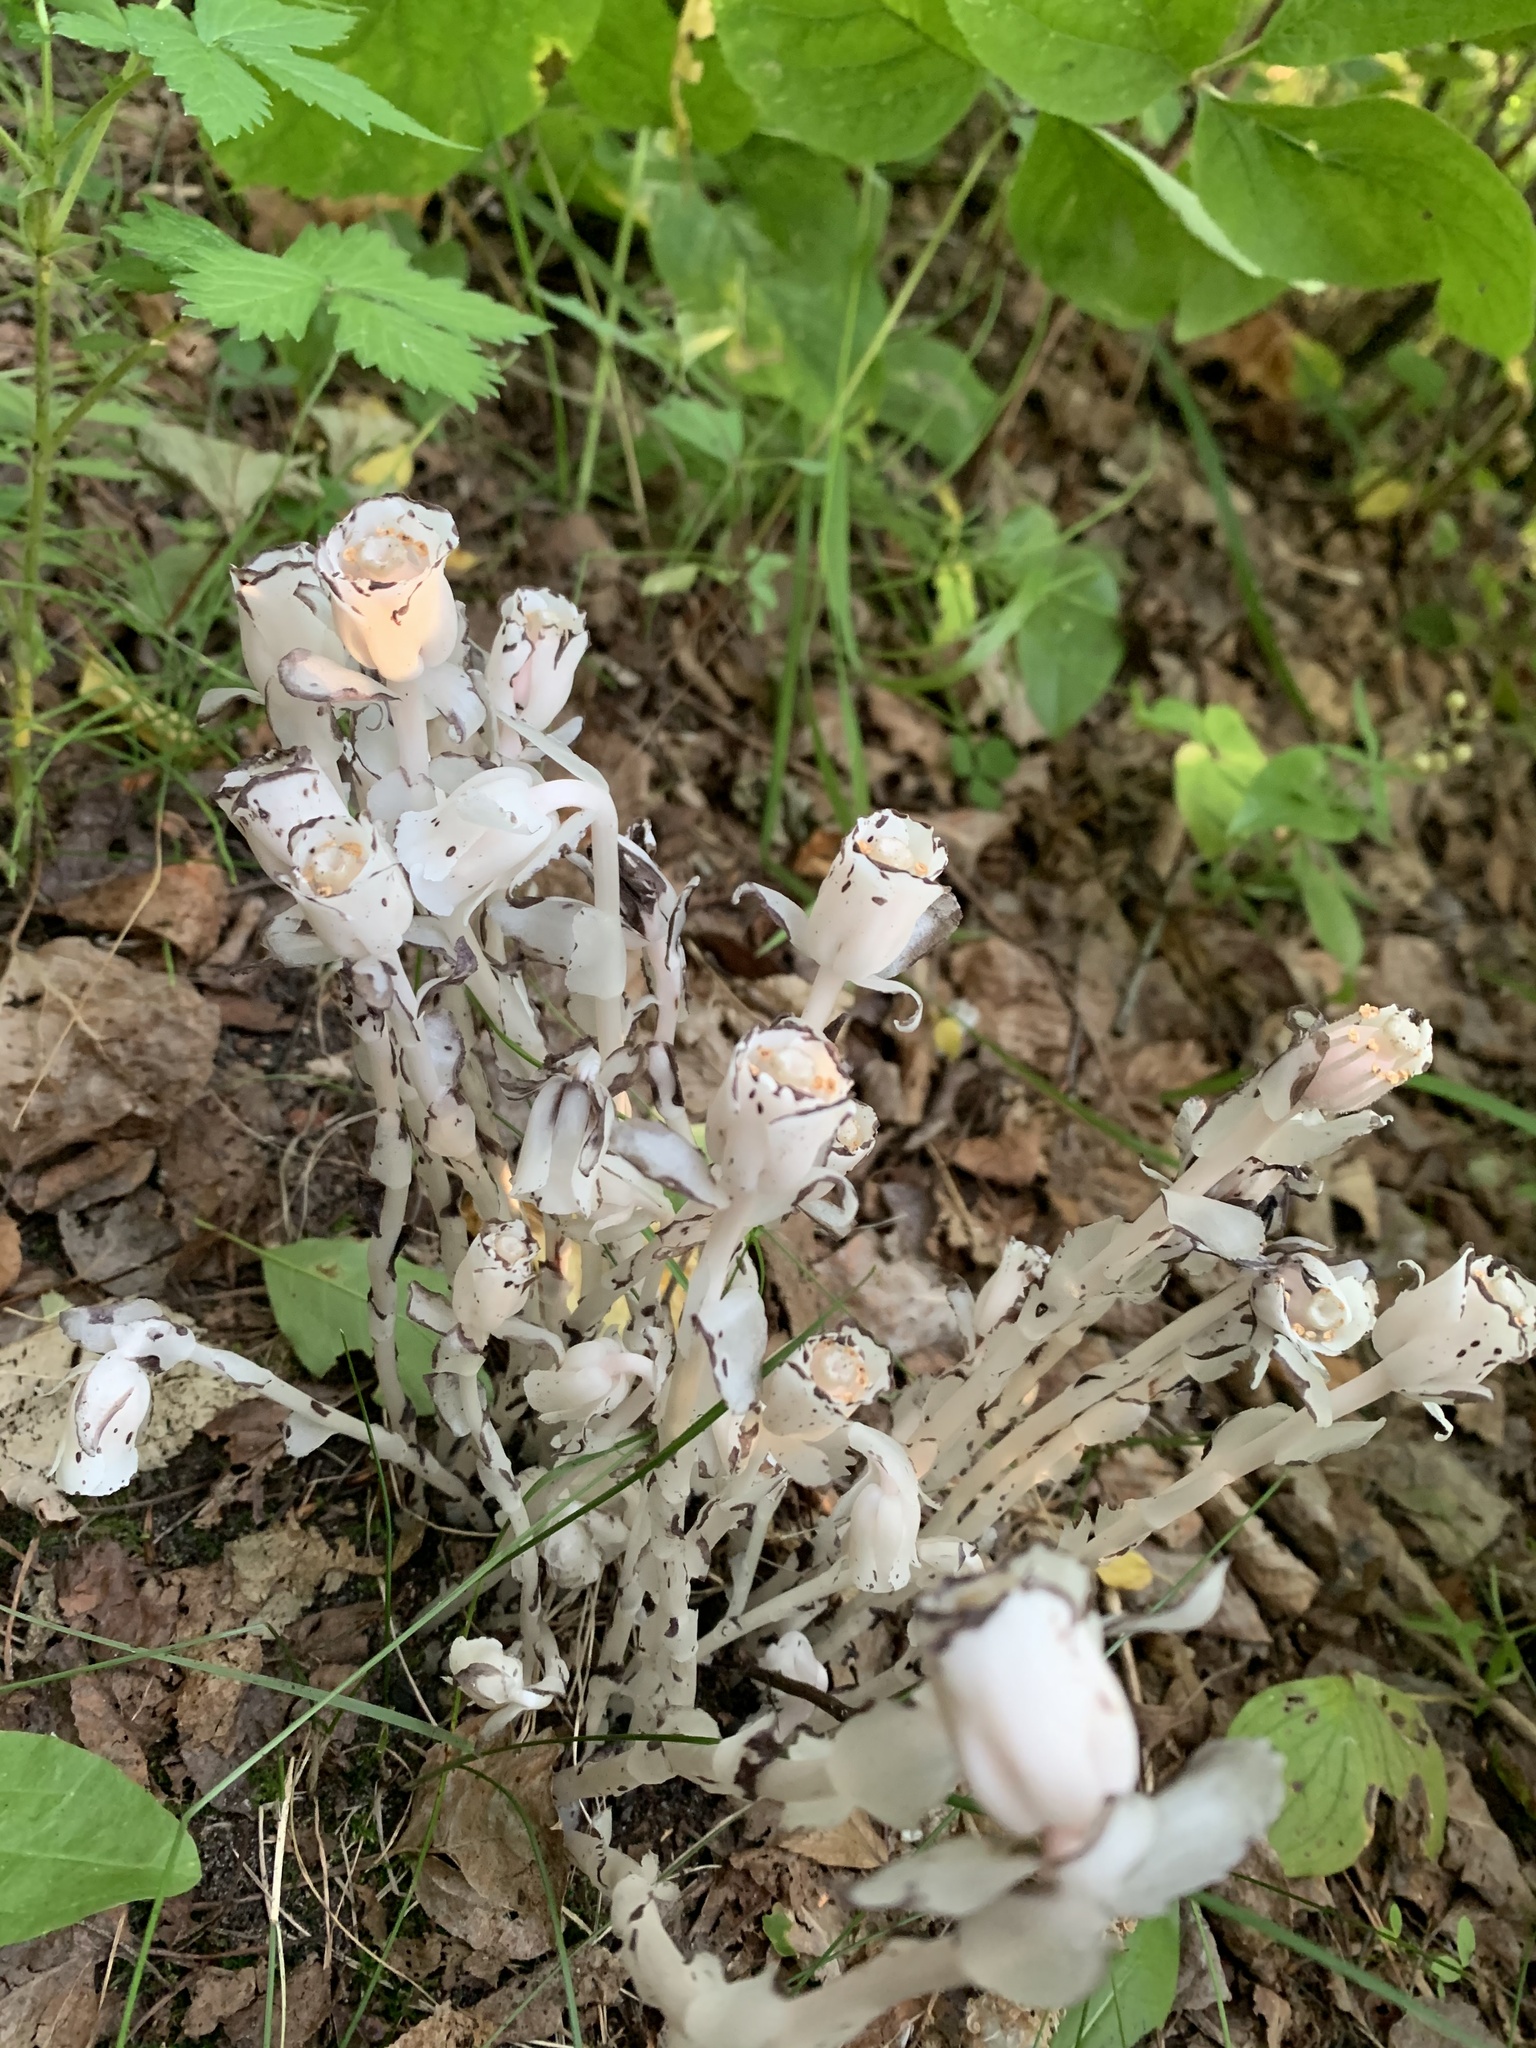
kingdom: Plantae
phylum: Tracheophyta
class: Magnoliopsida
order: Ericales
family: Ericaceae
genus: Monotropa
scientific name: Monotropa uniflora
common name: Convulsion root
